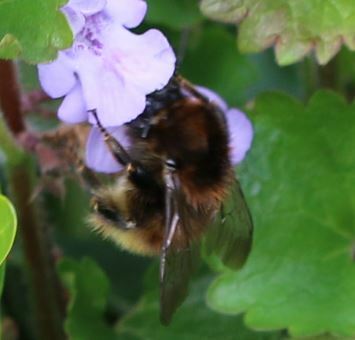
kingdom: Animalia
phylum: Arthropoda
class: Insecta
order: Hymenoptera
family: Apidae
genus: Bombus
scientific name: Bombus humilis
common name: Brown-banded carder-bee
